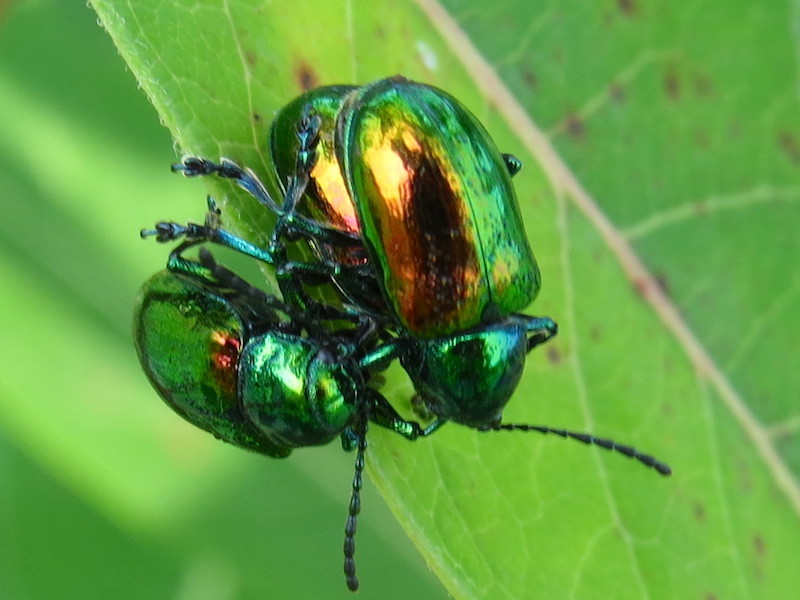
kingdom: Animalia
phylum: Arthropoda
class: Insecta
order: Coleoptera
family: Chrysomelidae
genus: Chrysochus
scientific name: Chrysochus auratus
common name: Dogbane leaf beetle
